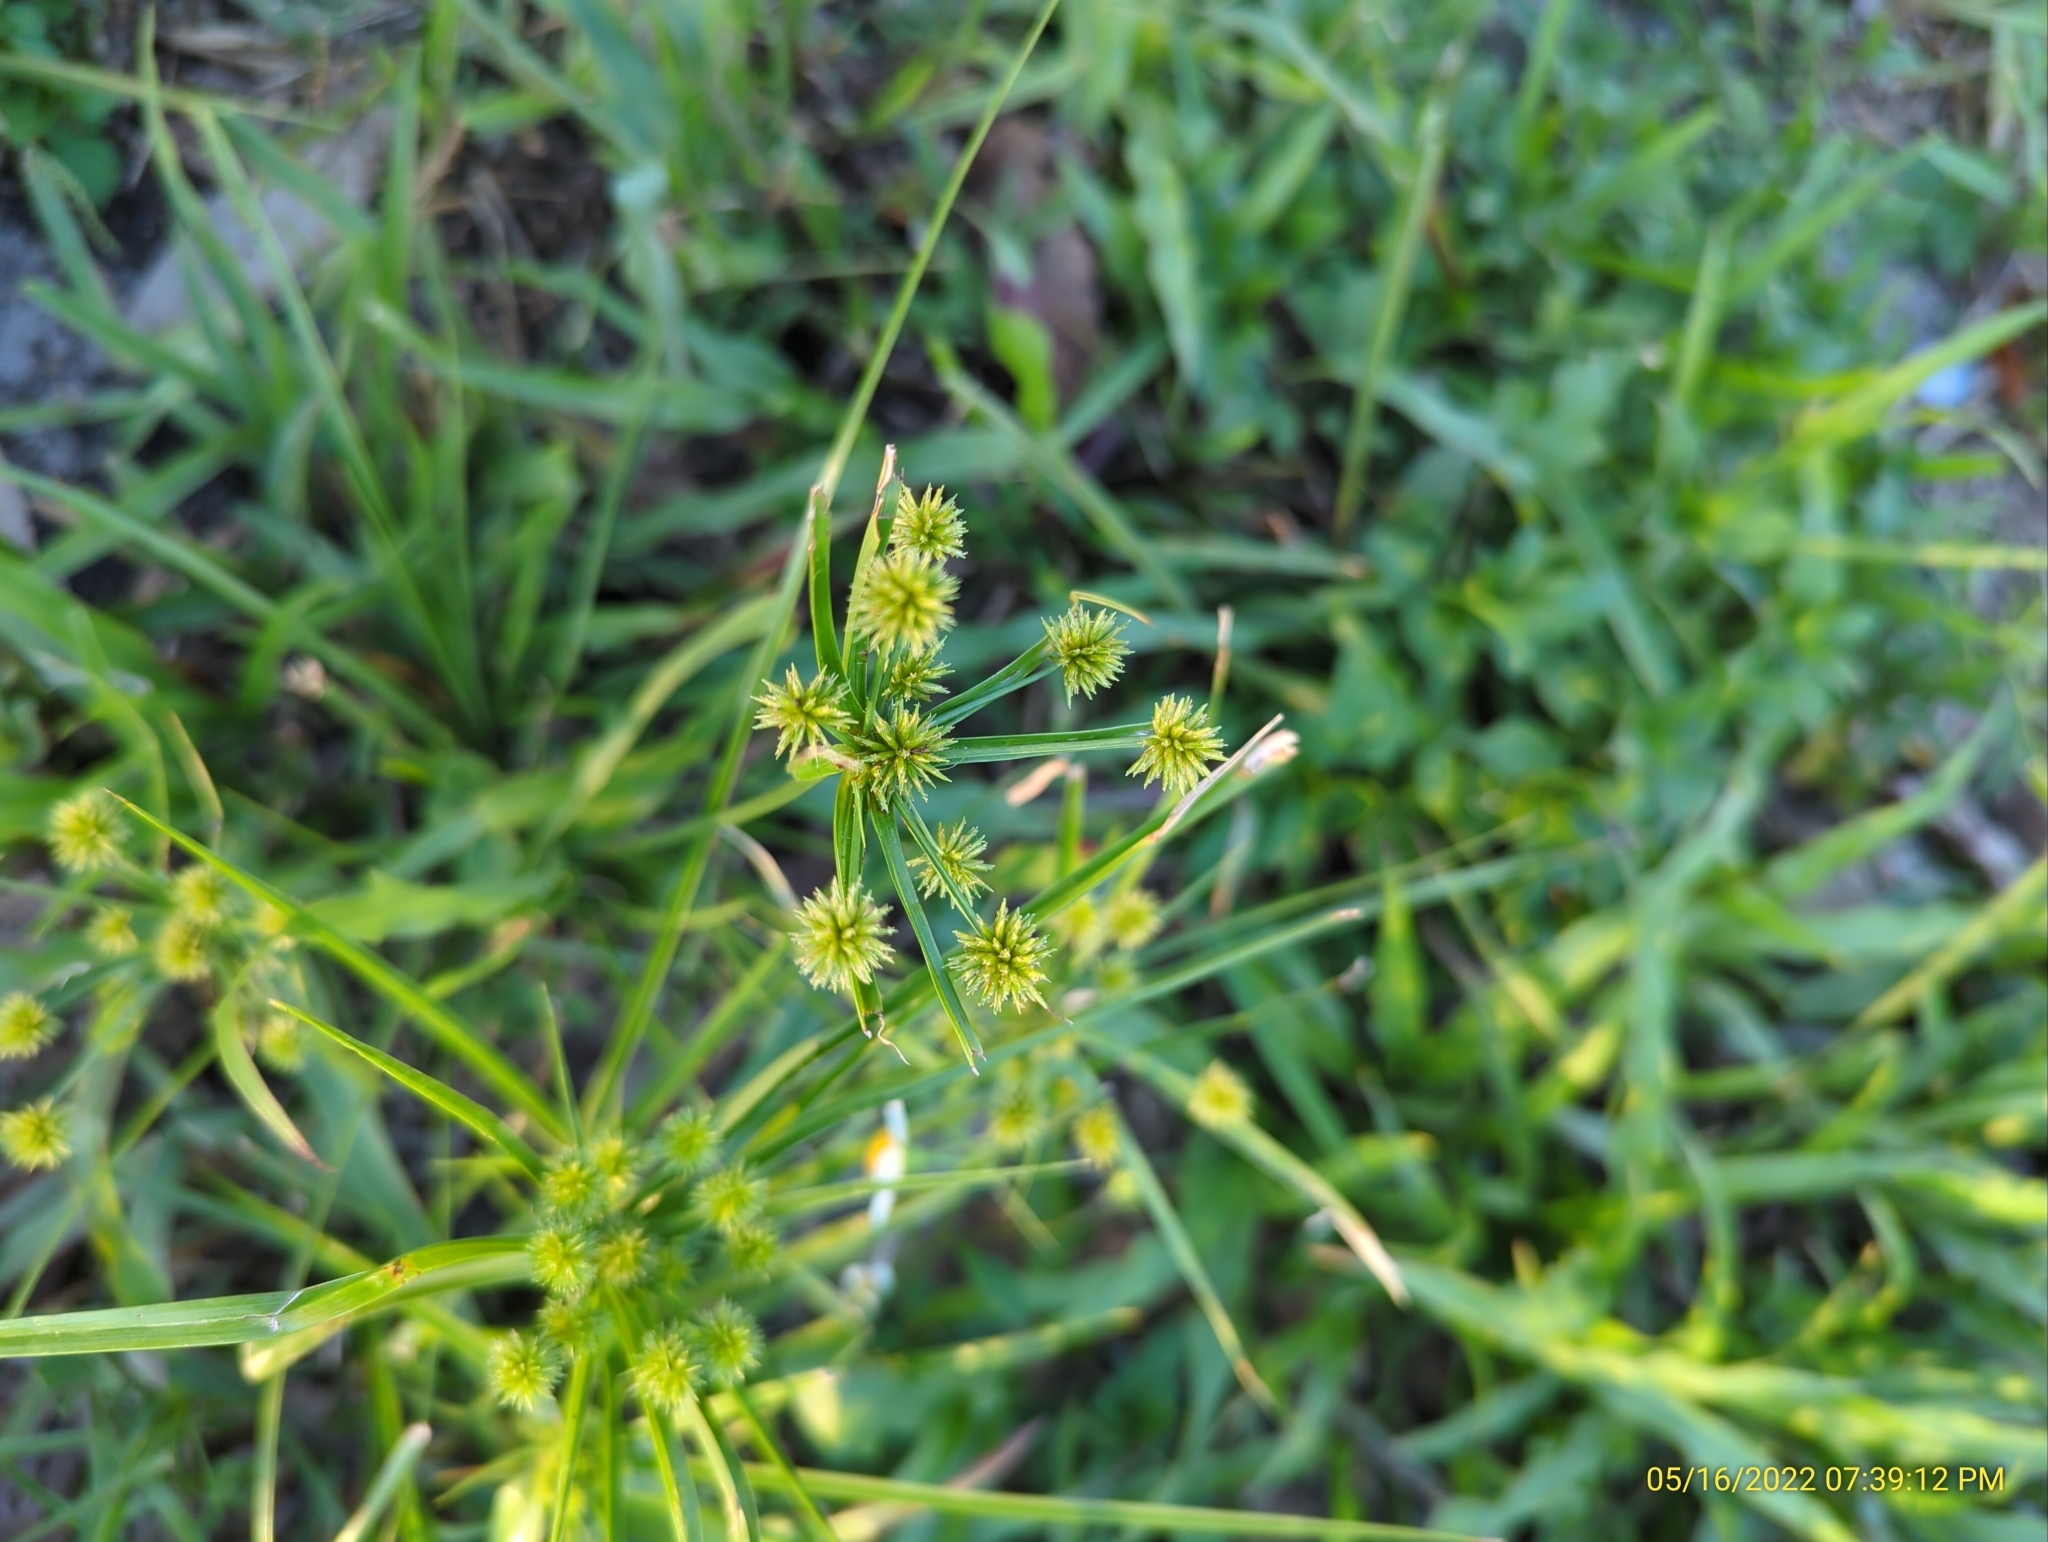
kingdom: Plantae
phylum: Tracheophyta
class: Liliopsida
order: Poales
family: Cyperaceae
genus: Cyperus
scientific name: Cyperus croceus
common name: Baldwin's flatsedge
